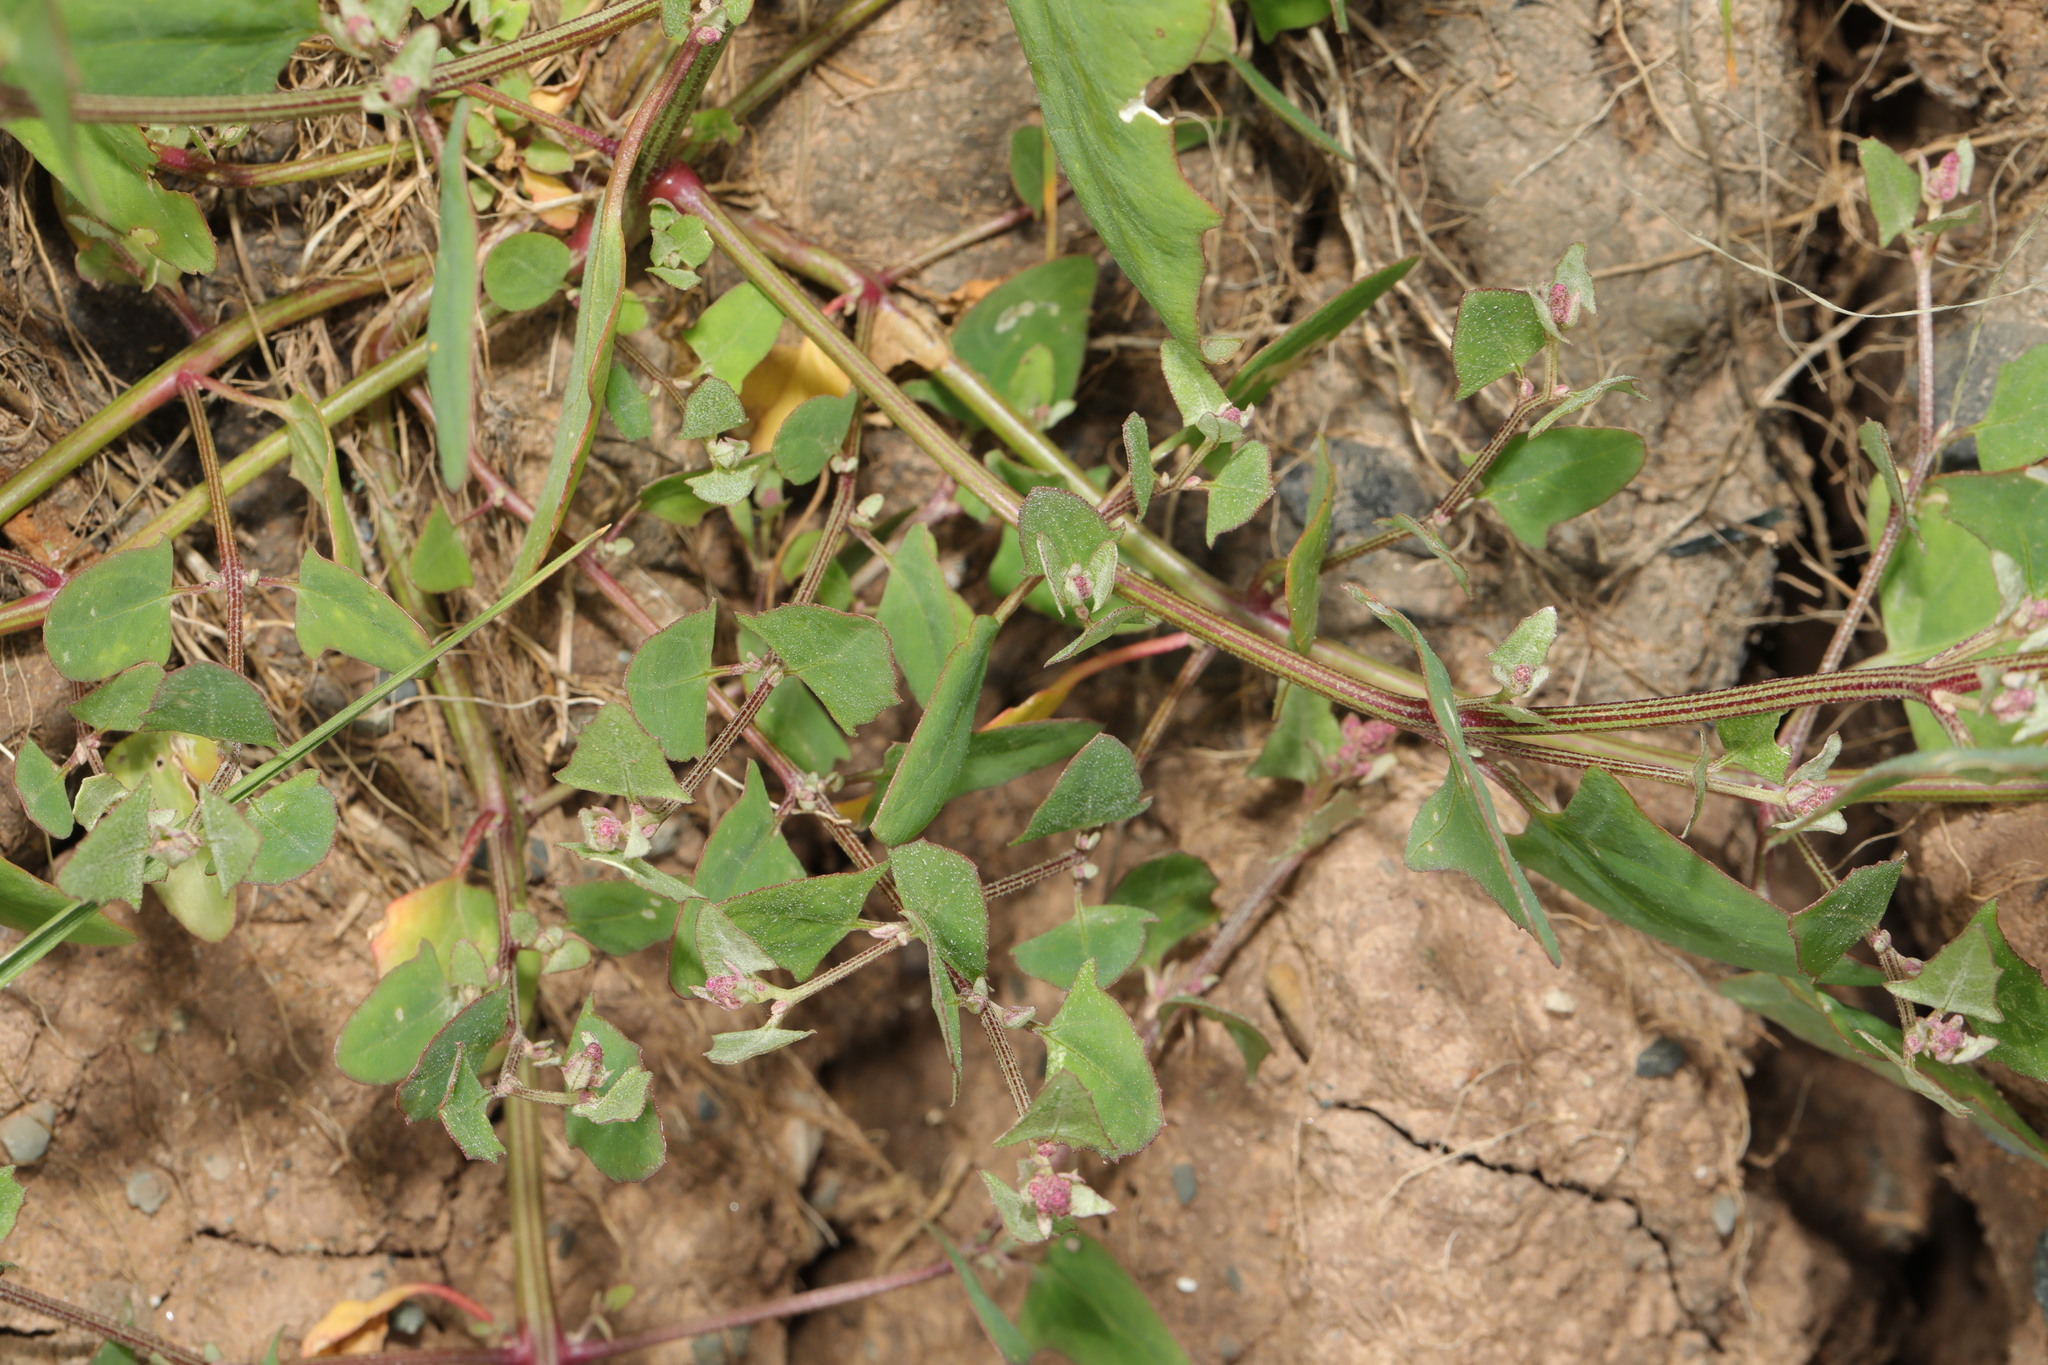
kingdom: Plantae
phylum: Tracheophyta
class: Magnoliopsida
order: Caryophyllales
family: Amaranthaceae
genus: Atriplex
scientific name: Atriplex prostrata
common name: Spear-leaved orache
